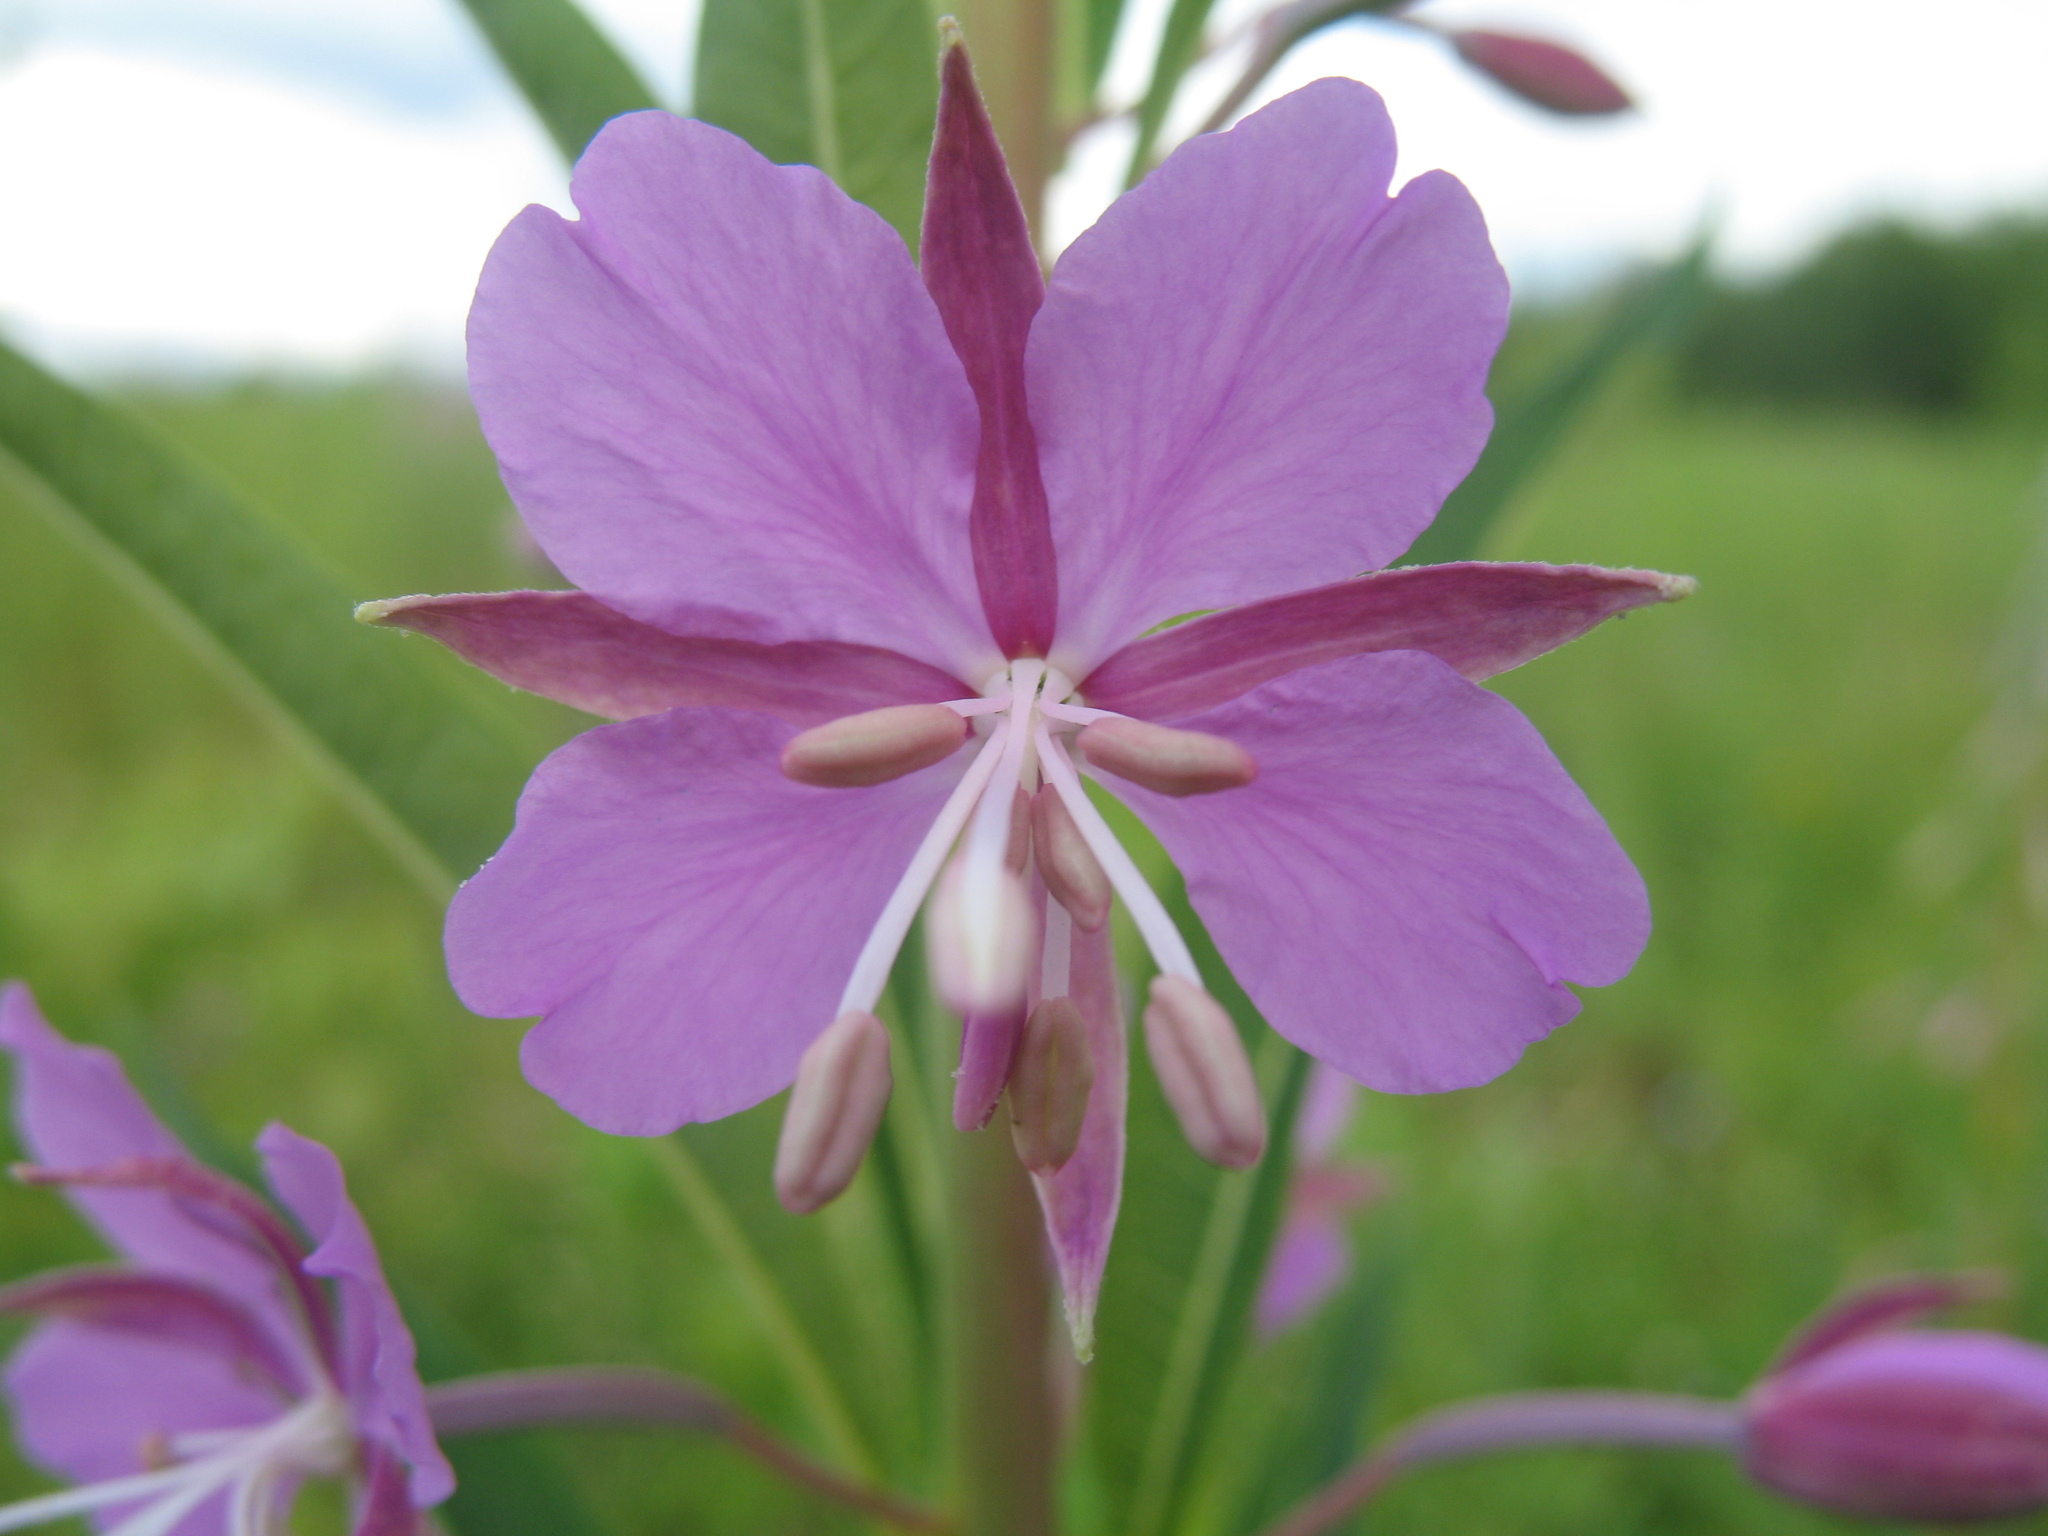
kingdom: Plantae
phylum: Tracheophyta
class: Magnoliopsida
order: Myrtales
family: Onagraceae
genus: Chamaenerion
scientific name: Chamaenerion angustifolium
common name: Fireweed
